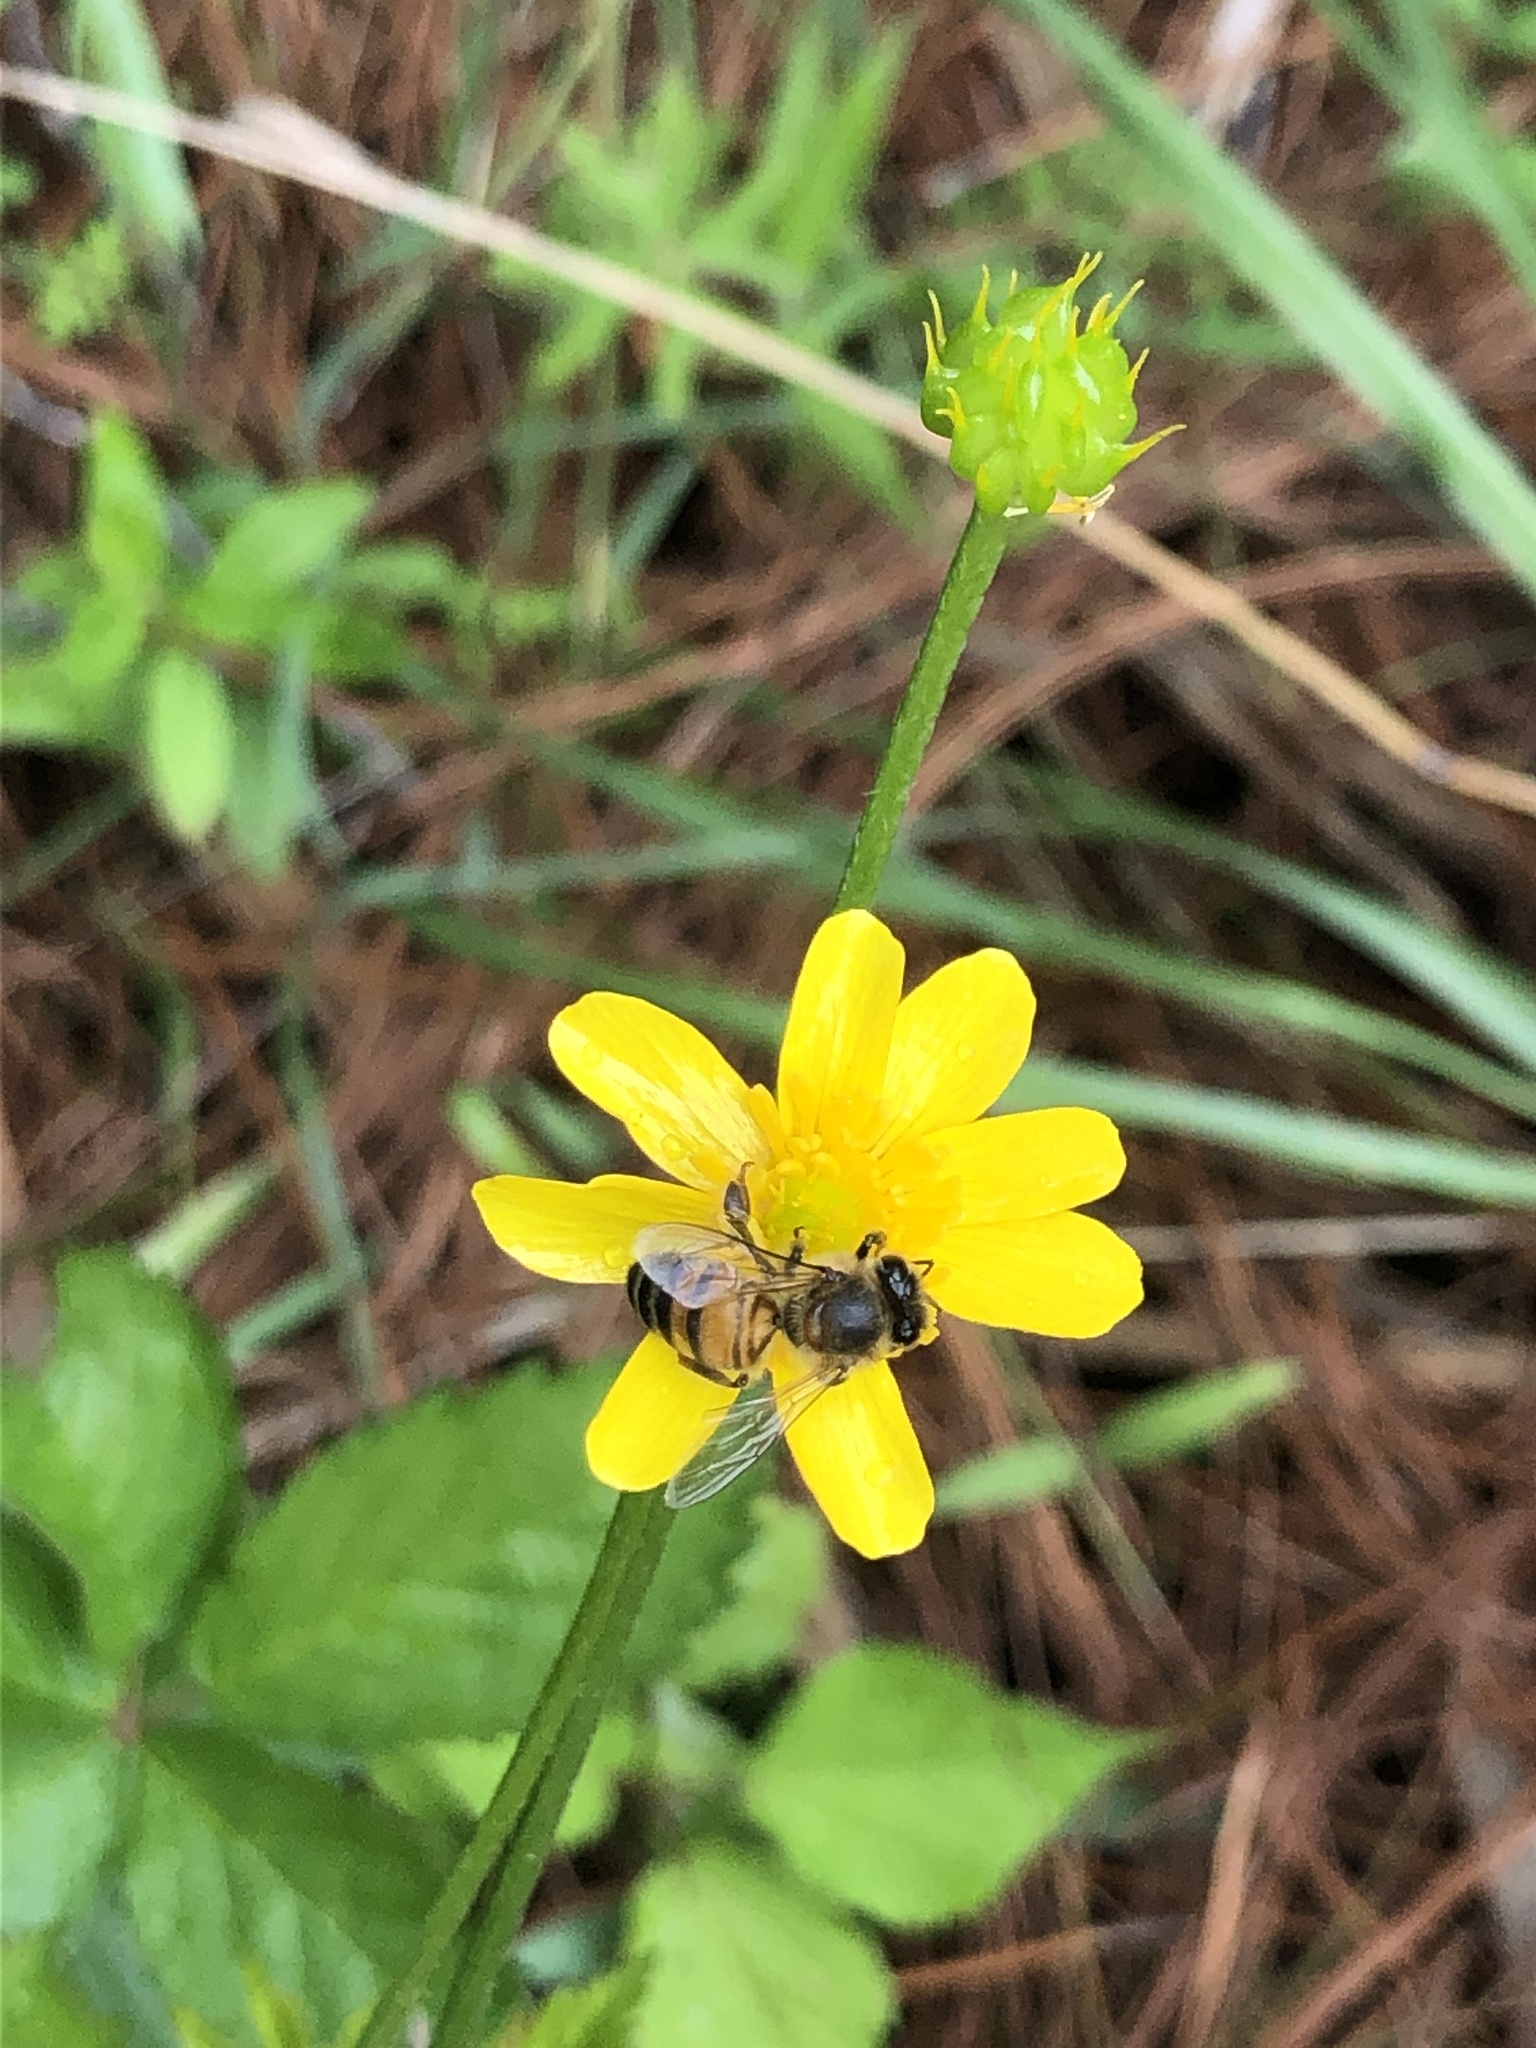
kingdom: Animalia
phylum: Arthropoda
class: Insecta
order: Hymenoptera
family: Apidae
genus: Apis
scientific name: Apis mellifera
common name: Honey bee
